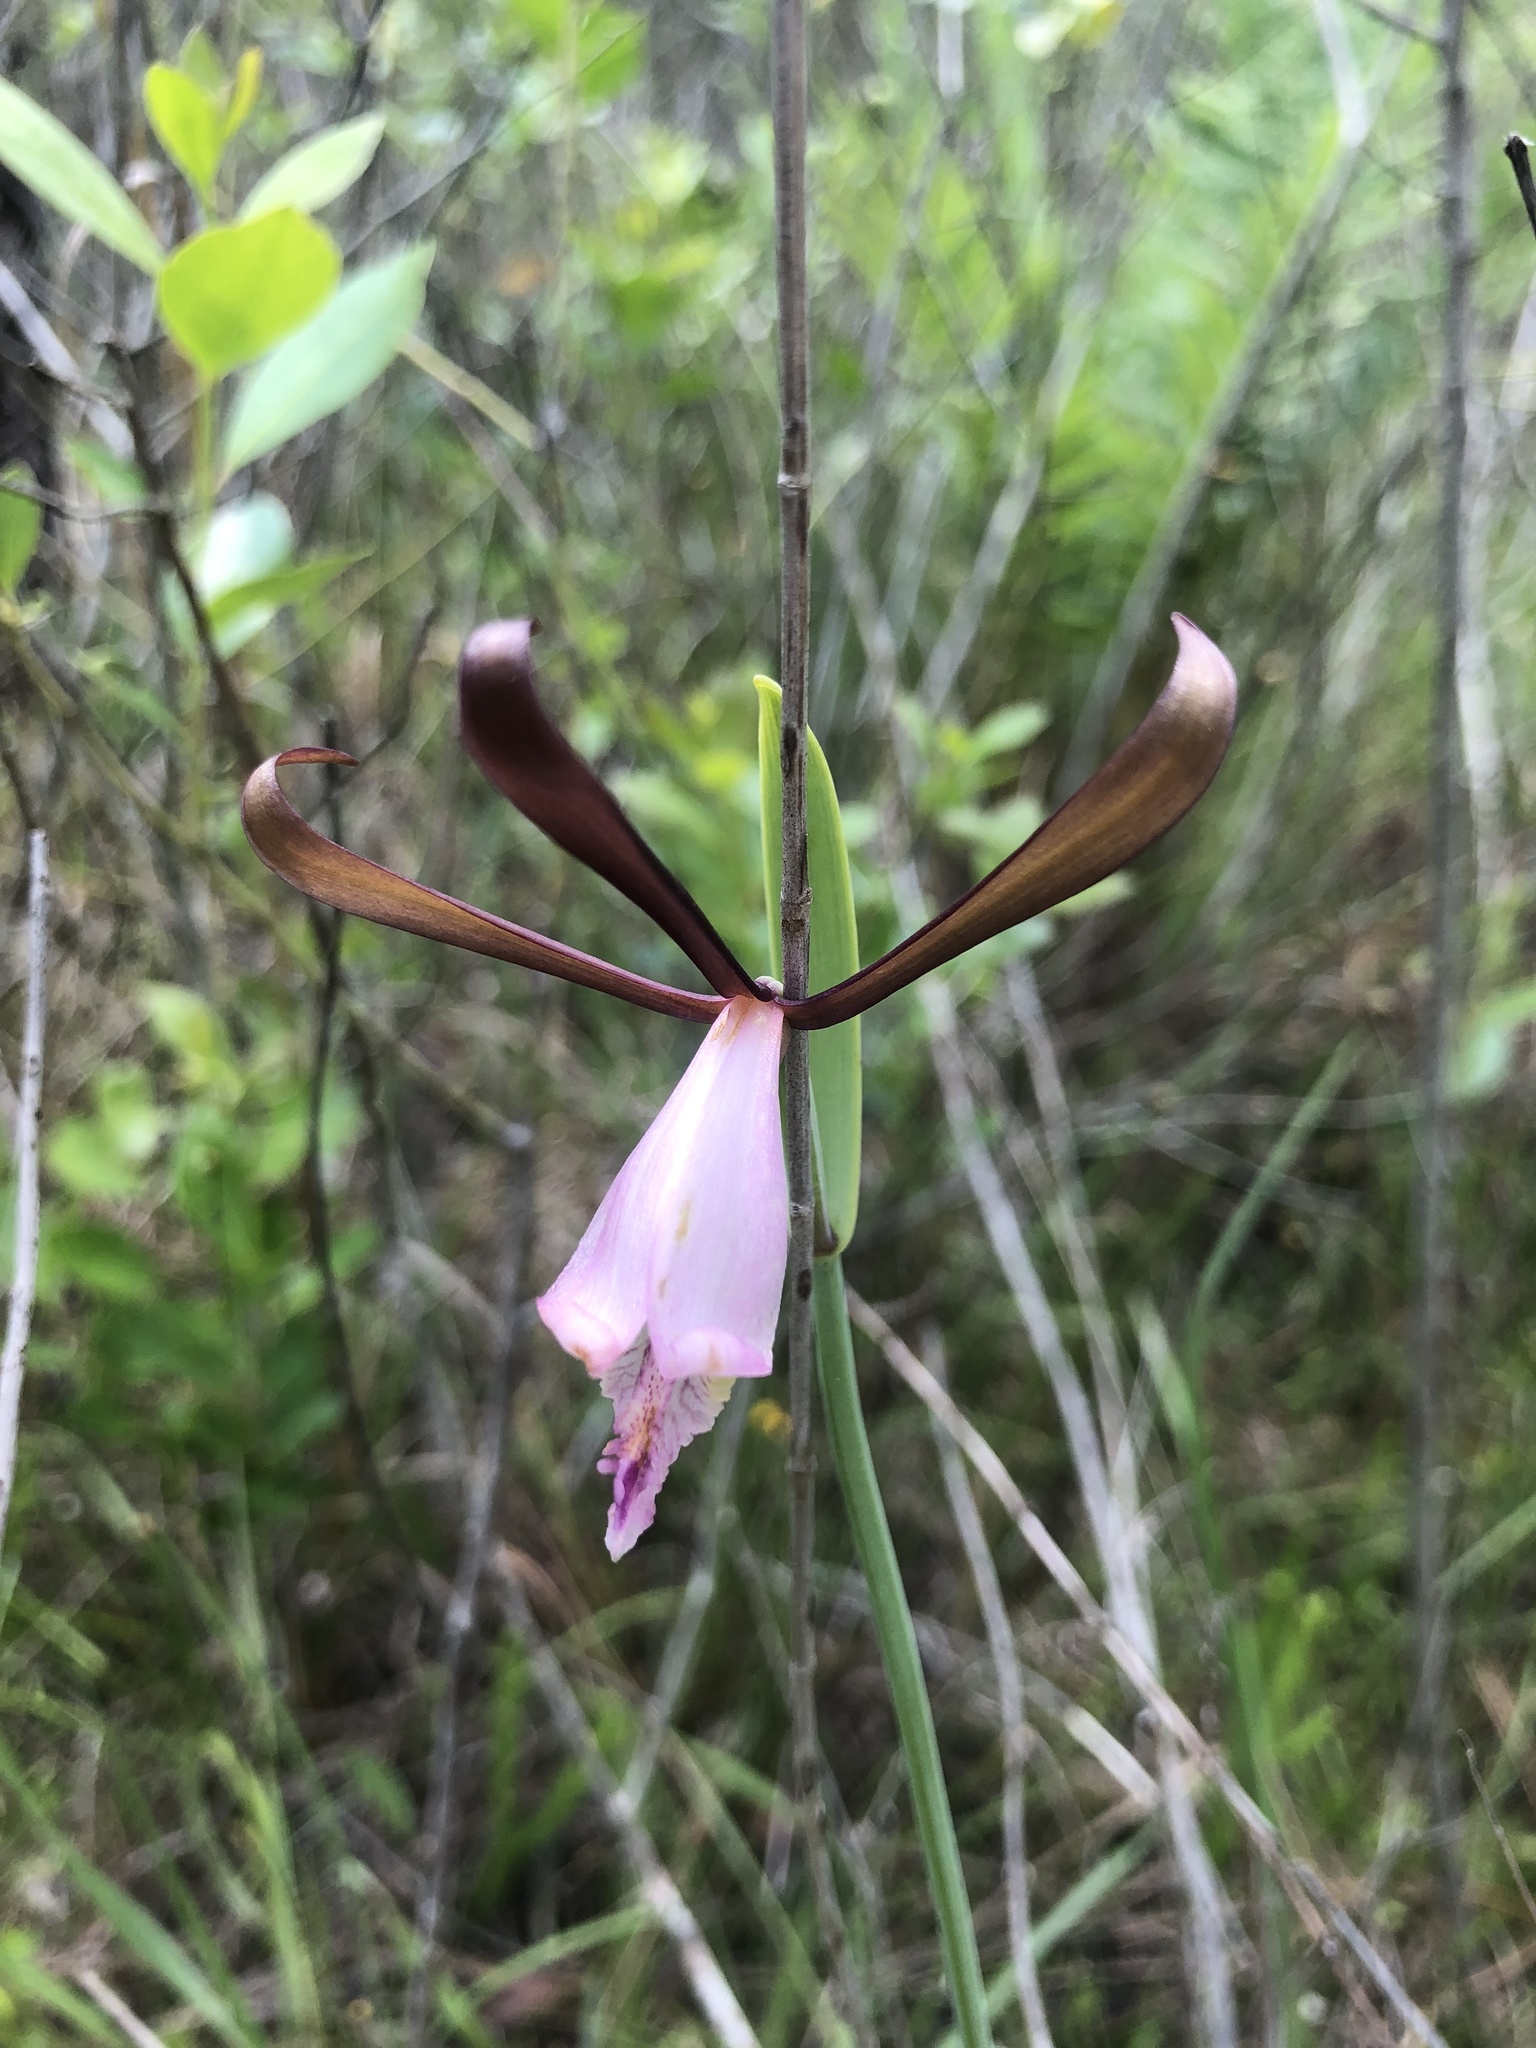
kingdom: Plantae
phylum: Tracheophyta
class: Liliopsida
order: Asparagales
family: Orchidaceae
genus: Cleistesiopsis
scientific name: Cleistesiopsis oricamporum
